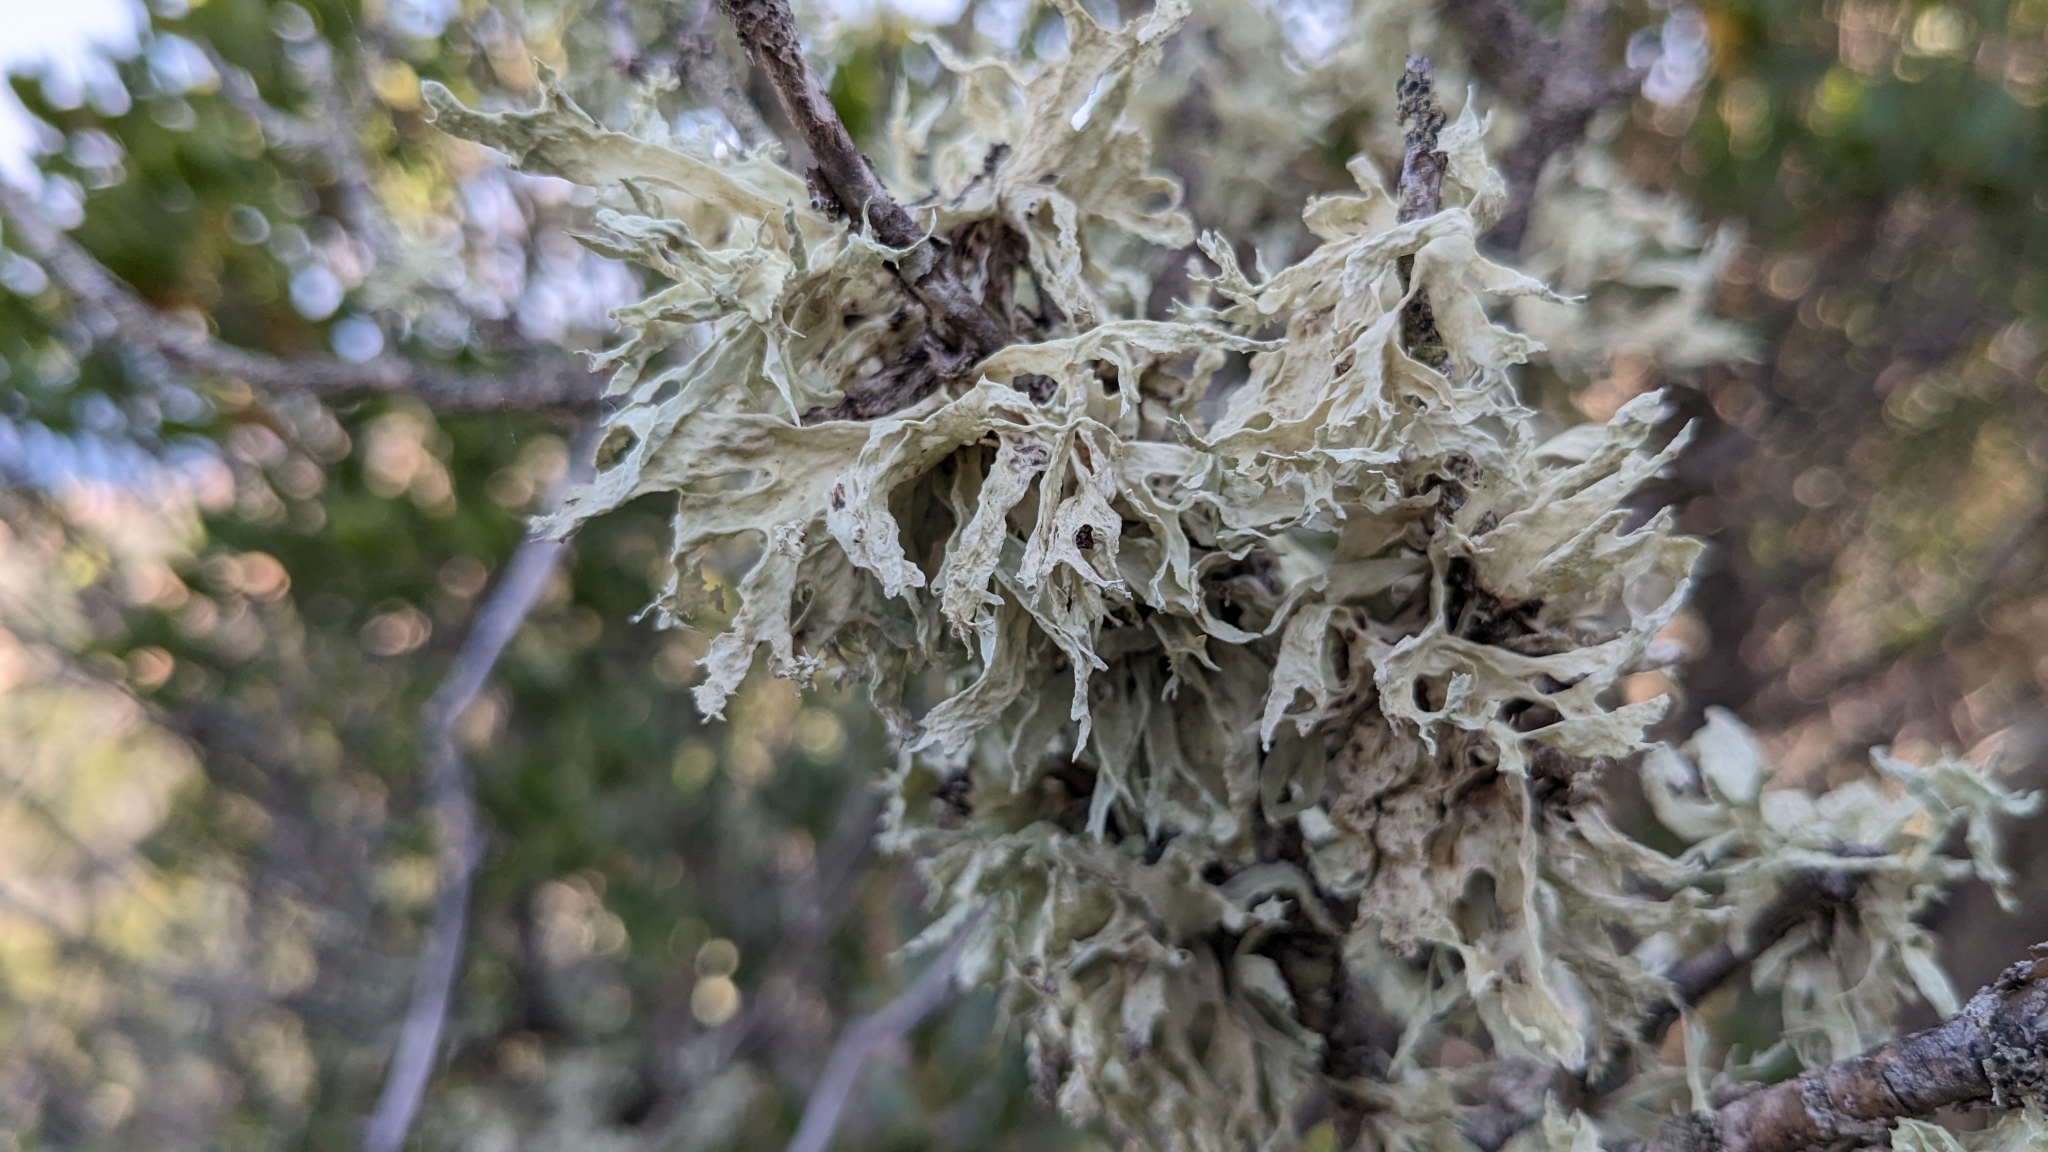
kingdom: Fungi
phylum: Ascomycota
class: Lecanoromycetes
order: Lecanorales
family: Ramalinaceae
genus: Ramalina
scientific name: Ramalina canariensis
